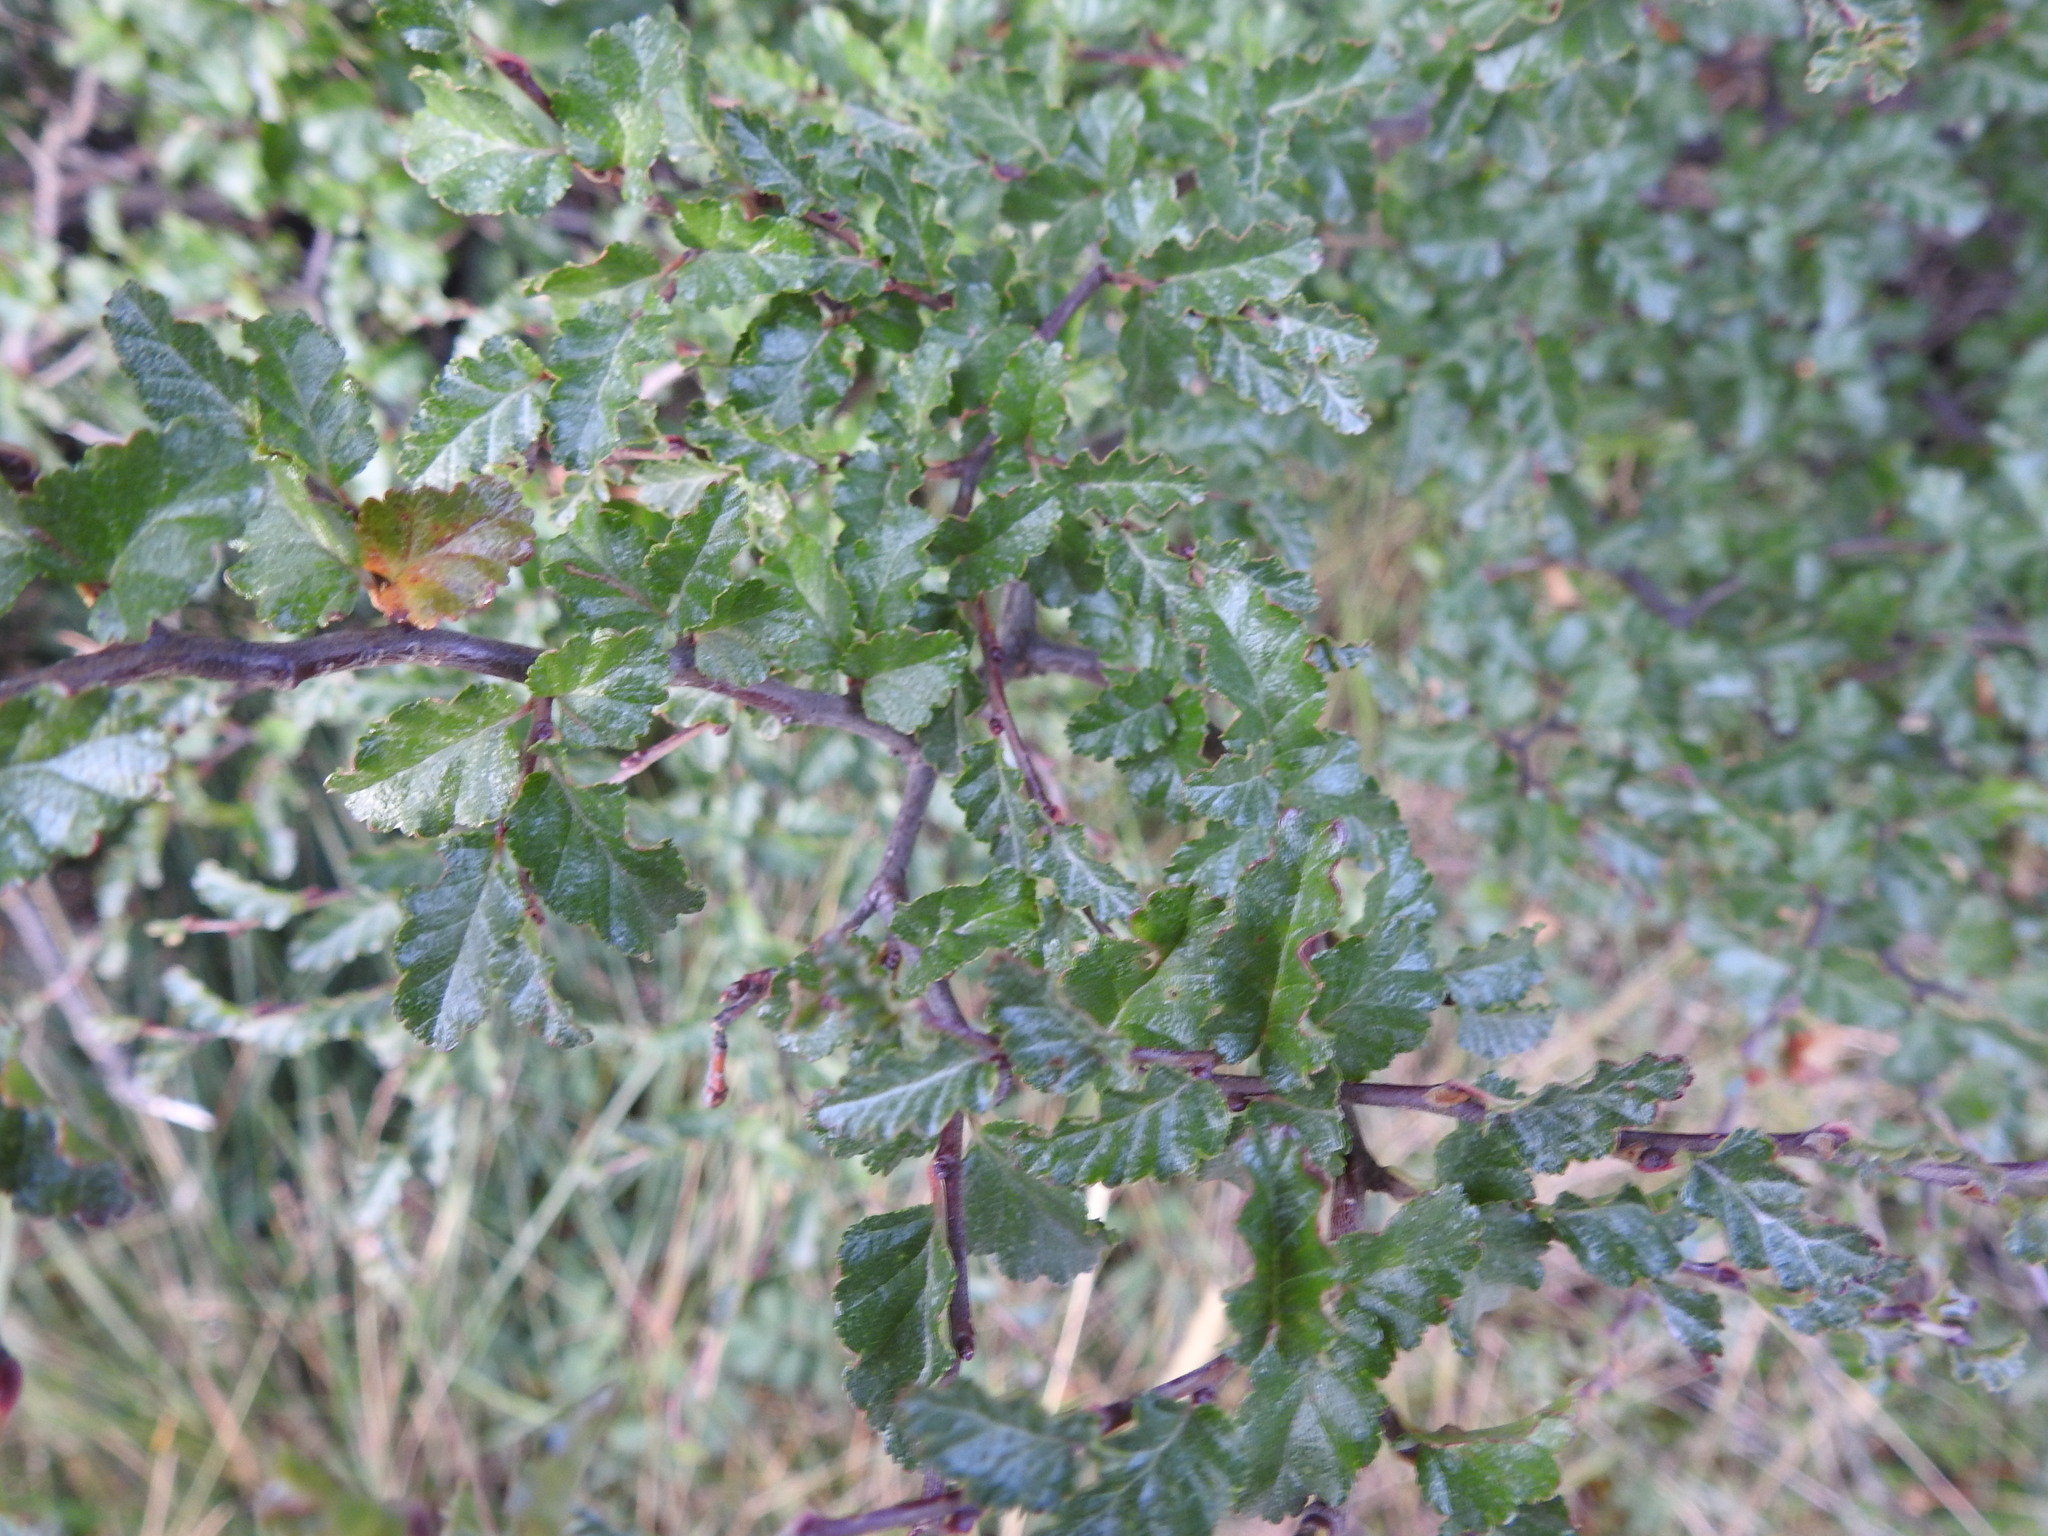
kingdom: Plantae
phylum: Tracheophyta
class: Magnoliopsida
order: Fagales
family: Nothofagaceae
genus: Nothofagus
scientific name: Nothofagus antarctica
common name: Antarctic beech
